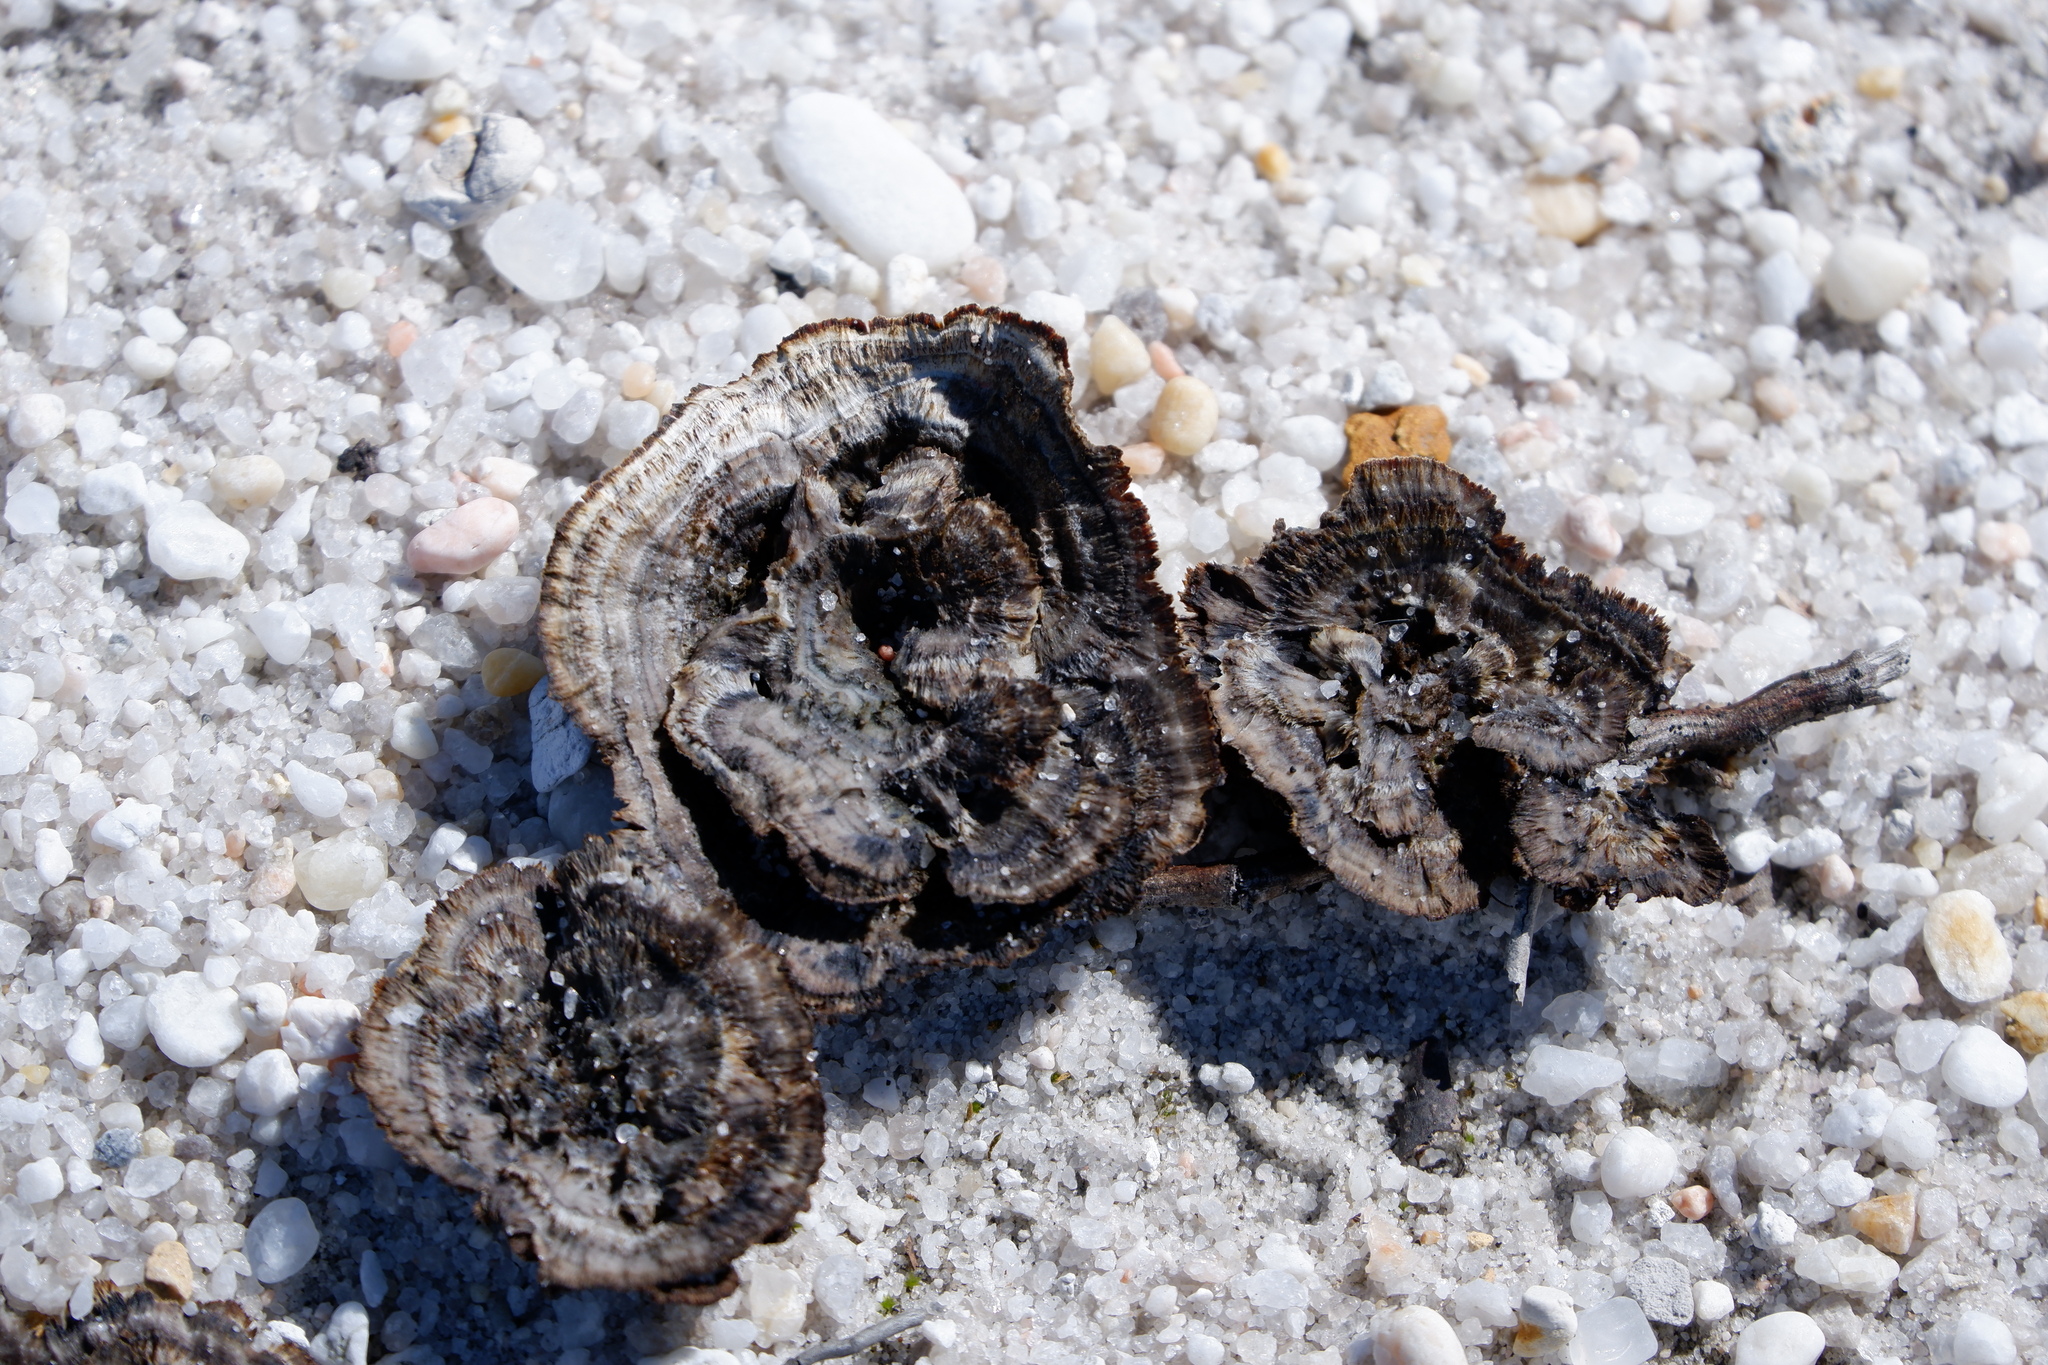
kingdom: Fungi
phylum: Basidiomycota
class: Agaricomycetes
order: Thelephorales
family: Thelephoraceae
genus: Thelephora
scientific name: Thelephora terrestris
